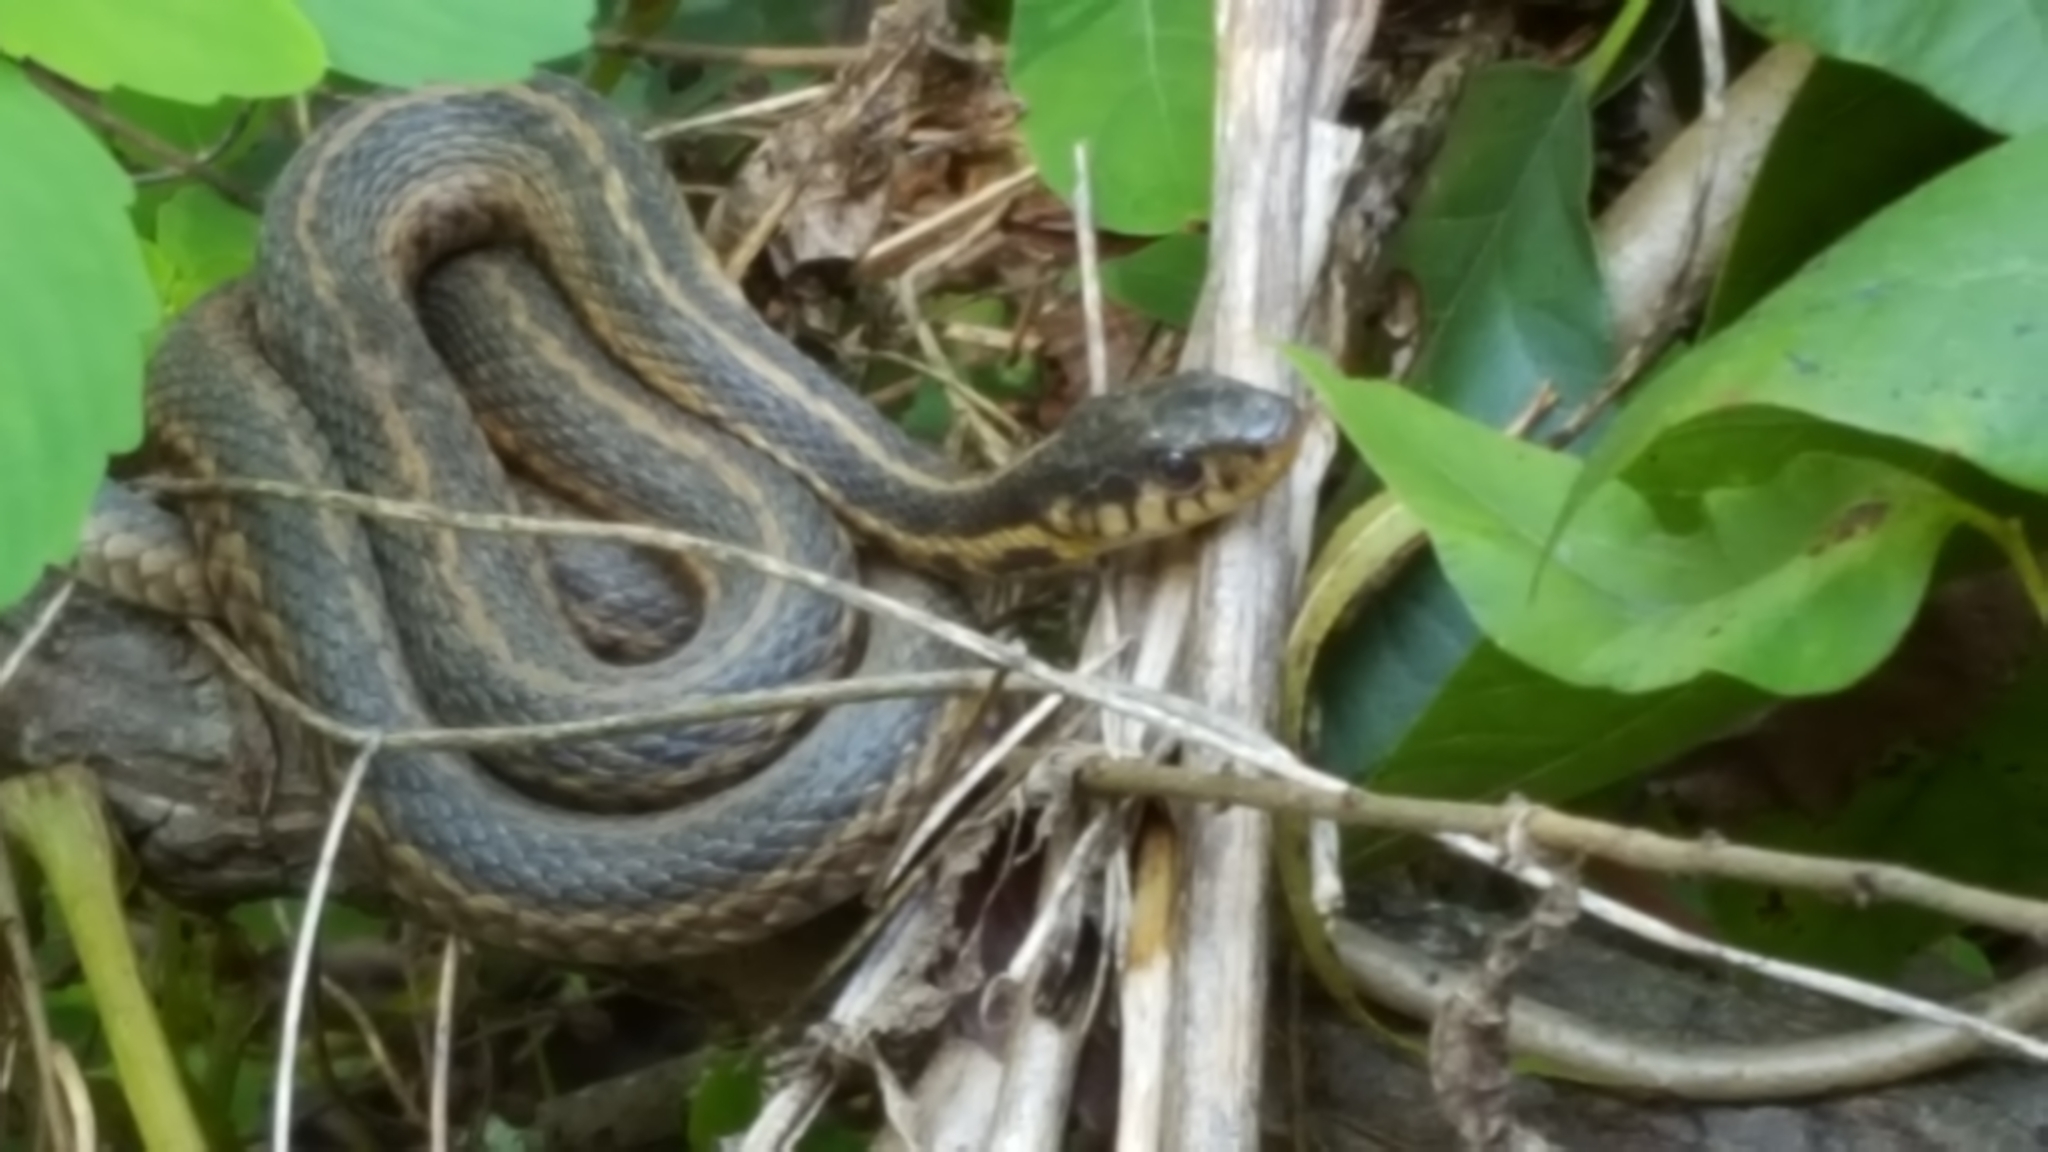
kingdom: Animalia
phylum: Chordata
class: Squamata
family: Colubridae
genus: Thamnophis
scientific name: Thamnophis sirtalis
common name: Common garter snake
